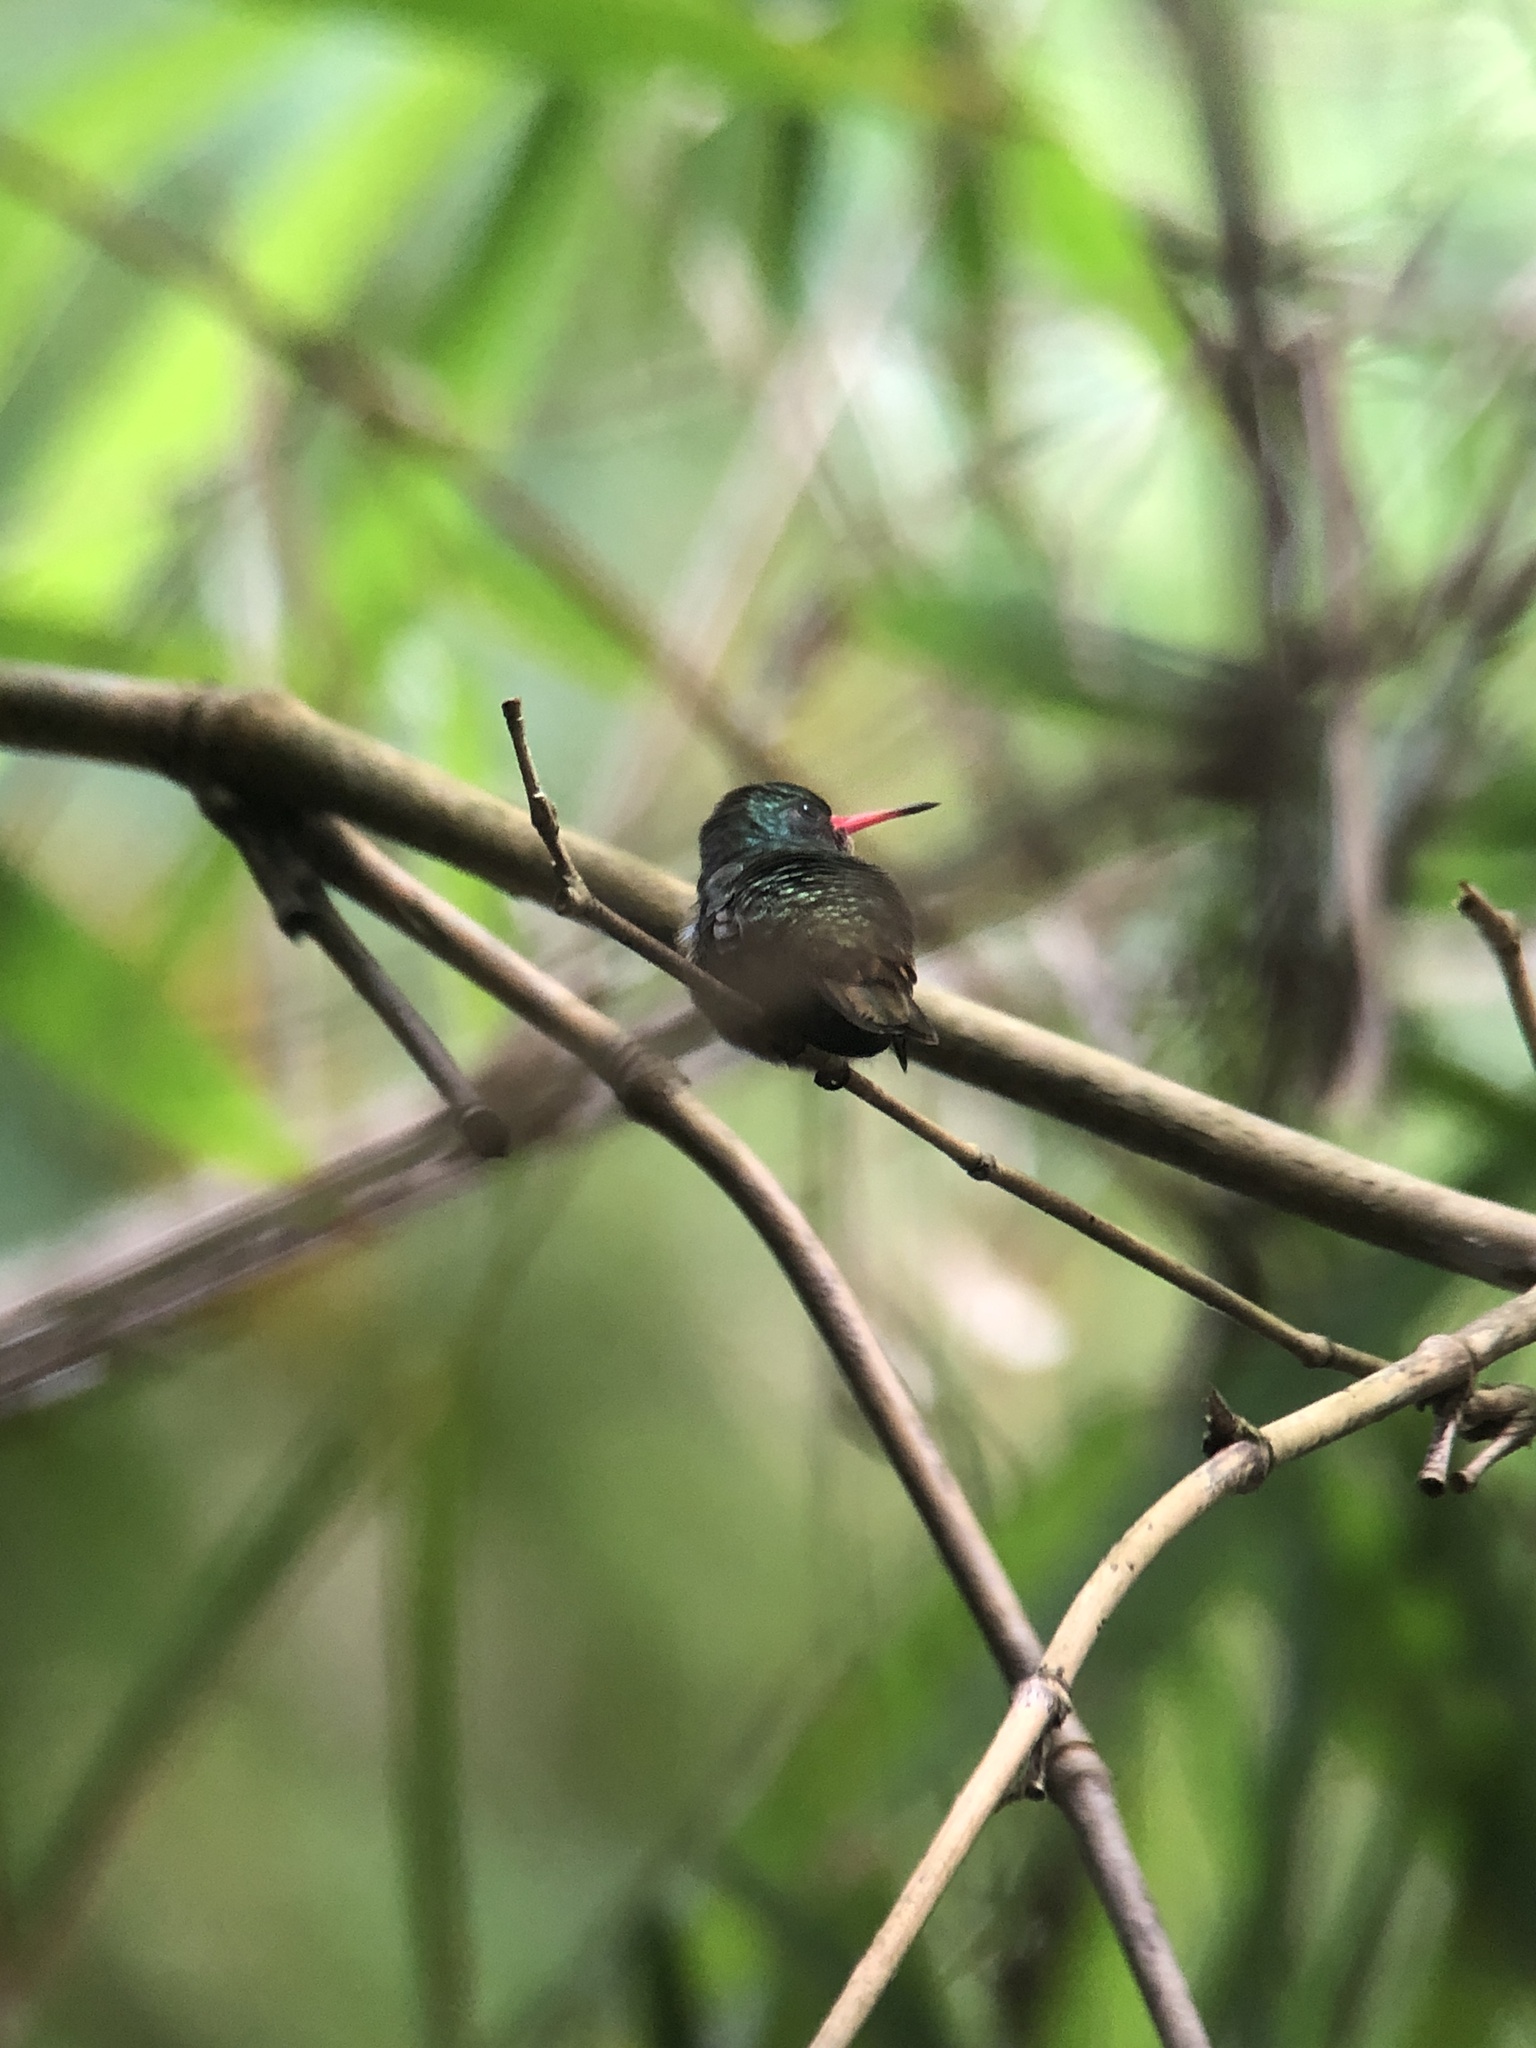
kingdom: Animalia
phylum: Chordata
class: Aves
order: Apodiformes
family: Trochilidae
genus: Chlorestes
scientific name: Chlorestes eliciae
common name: Blue-throated sapphire
